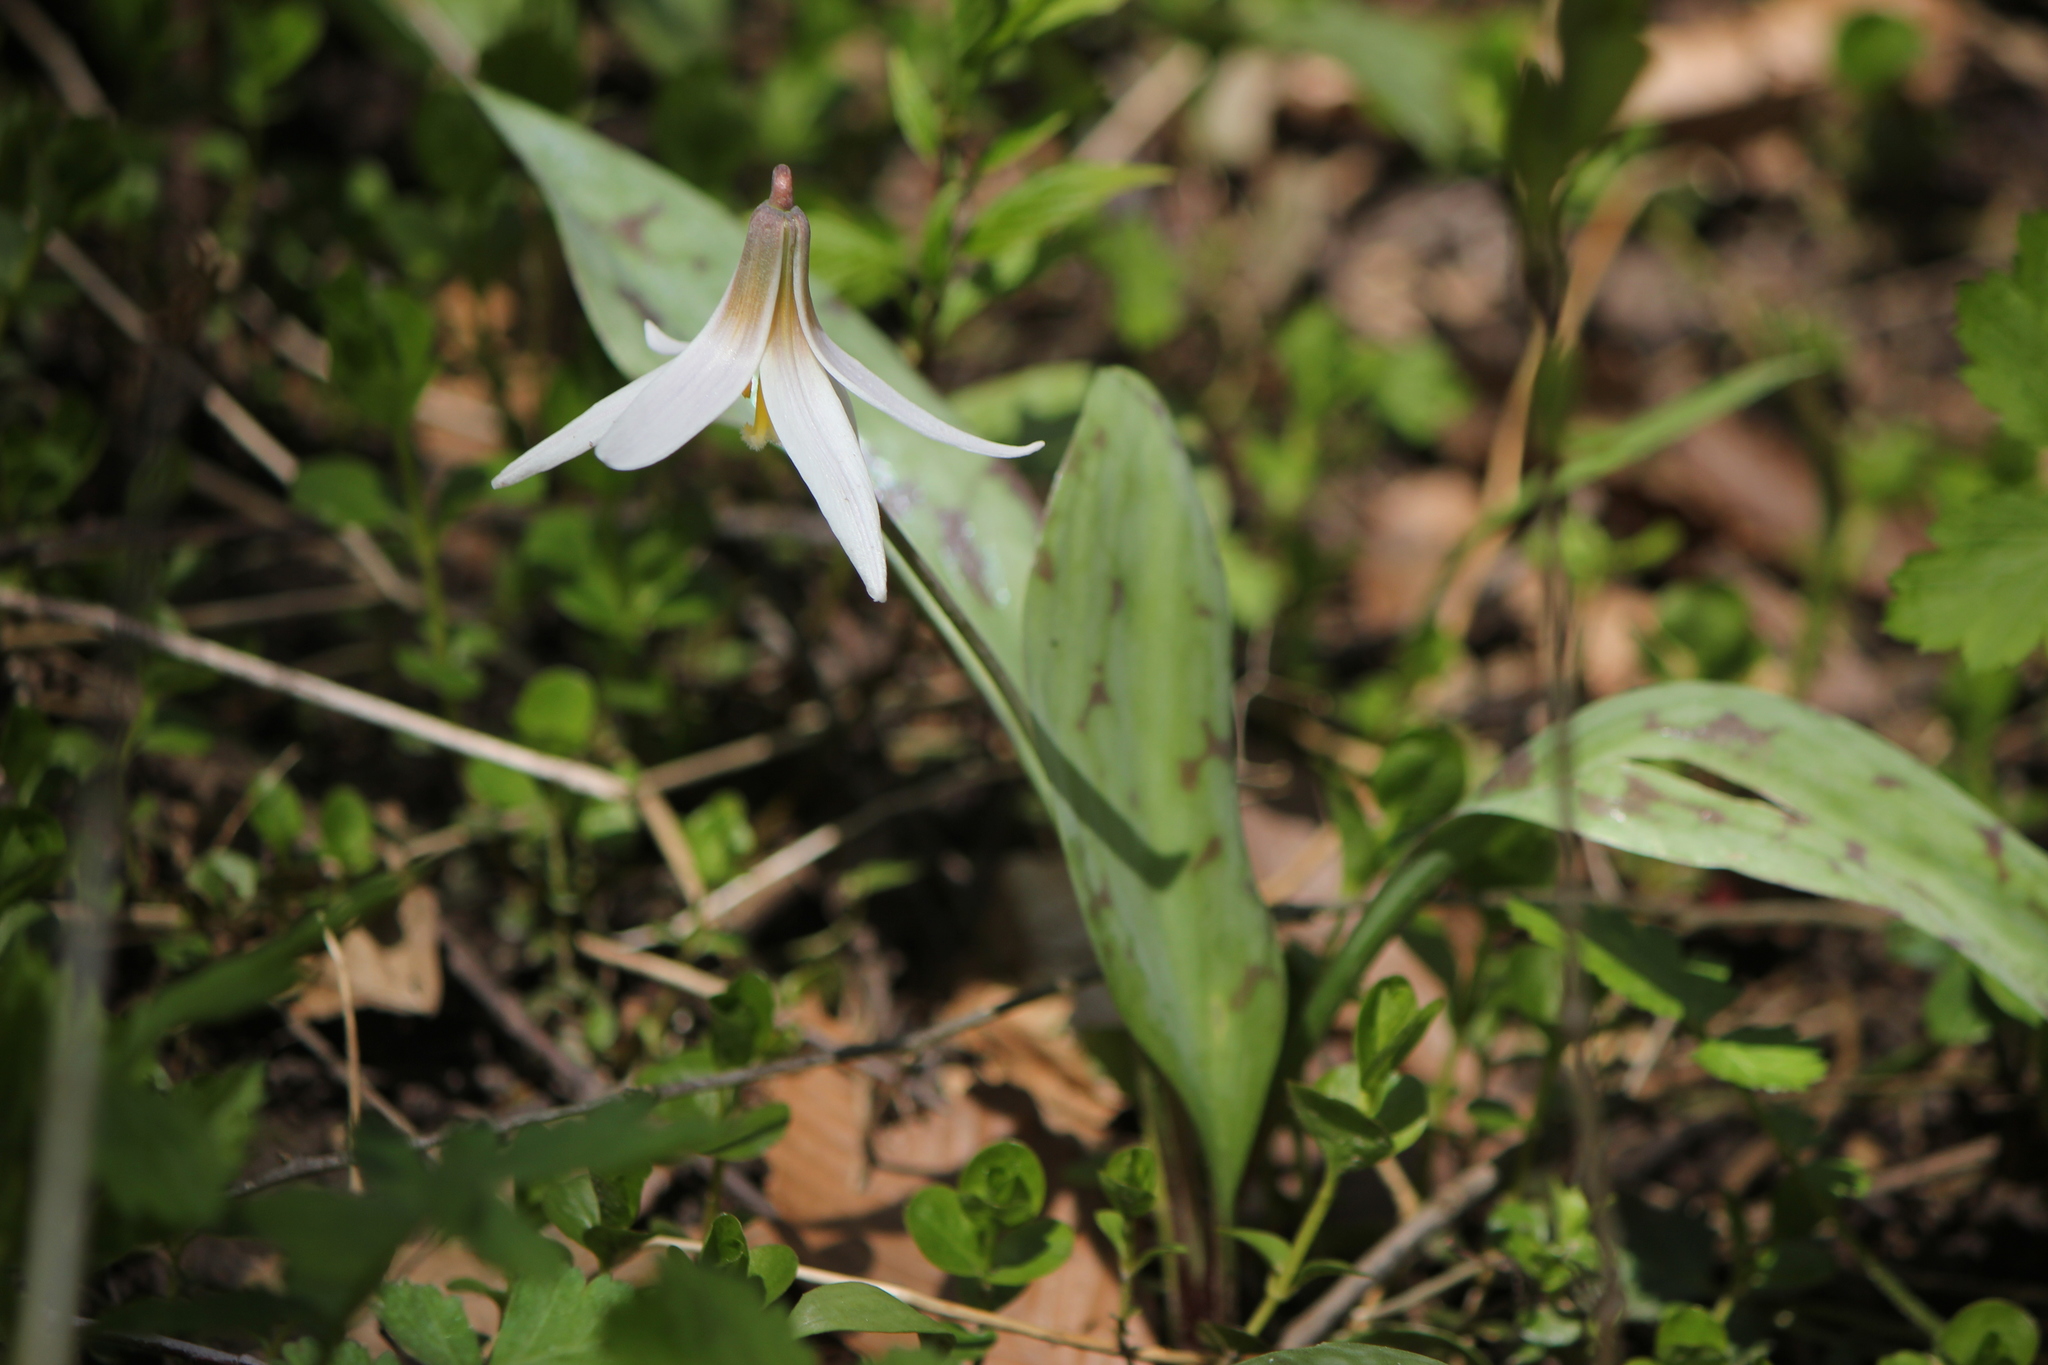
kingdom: Plantae
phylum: Tracheophyta
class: Liliopsida
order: Liliales
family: Liliaceae
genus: Erythronium
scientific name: Erythronium albidum
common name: White trout-lily
